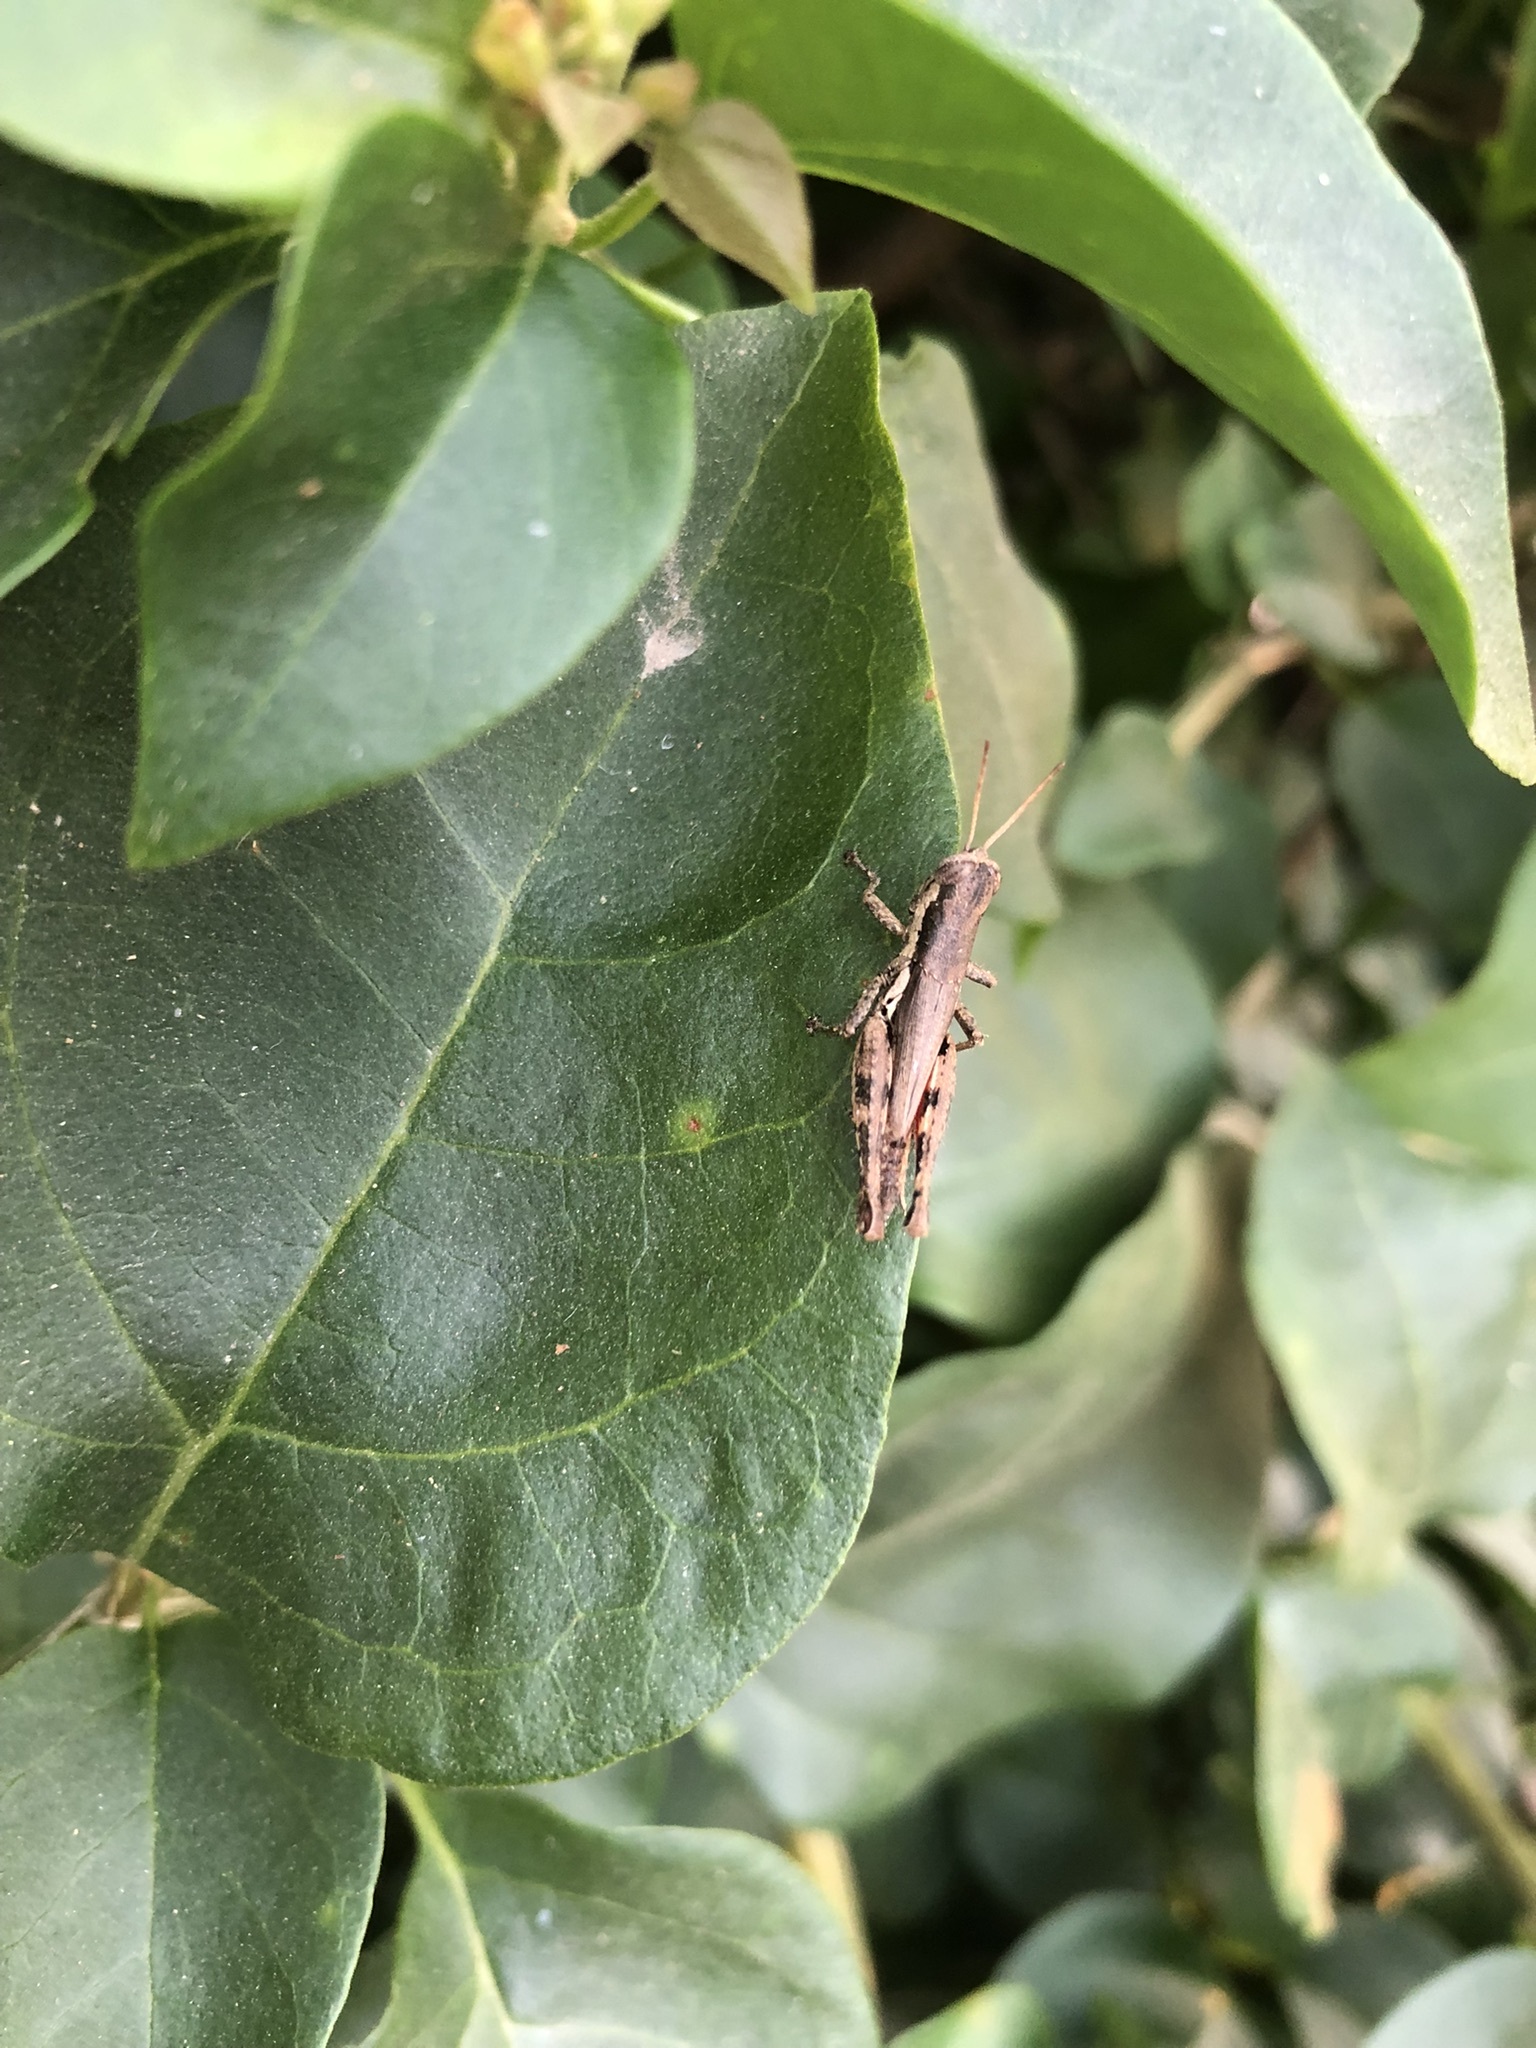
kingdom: Animalia
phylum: Arthropoda
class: Insecta
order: Orthoptera
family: Acrididae
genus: Pseudoxya
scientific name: Pseudoxya diminuta
